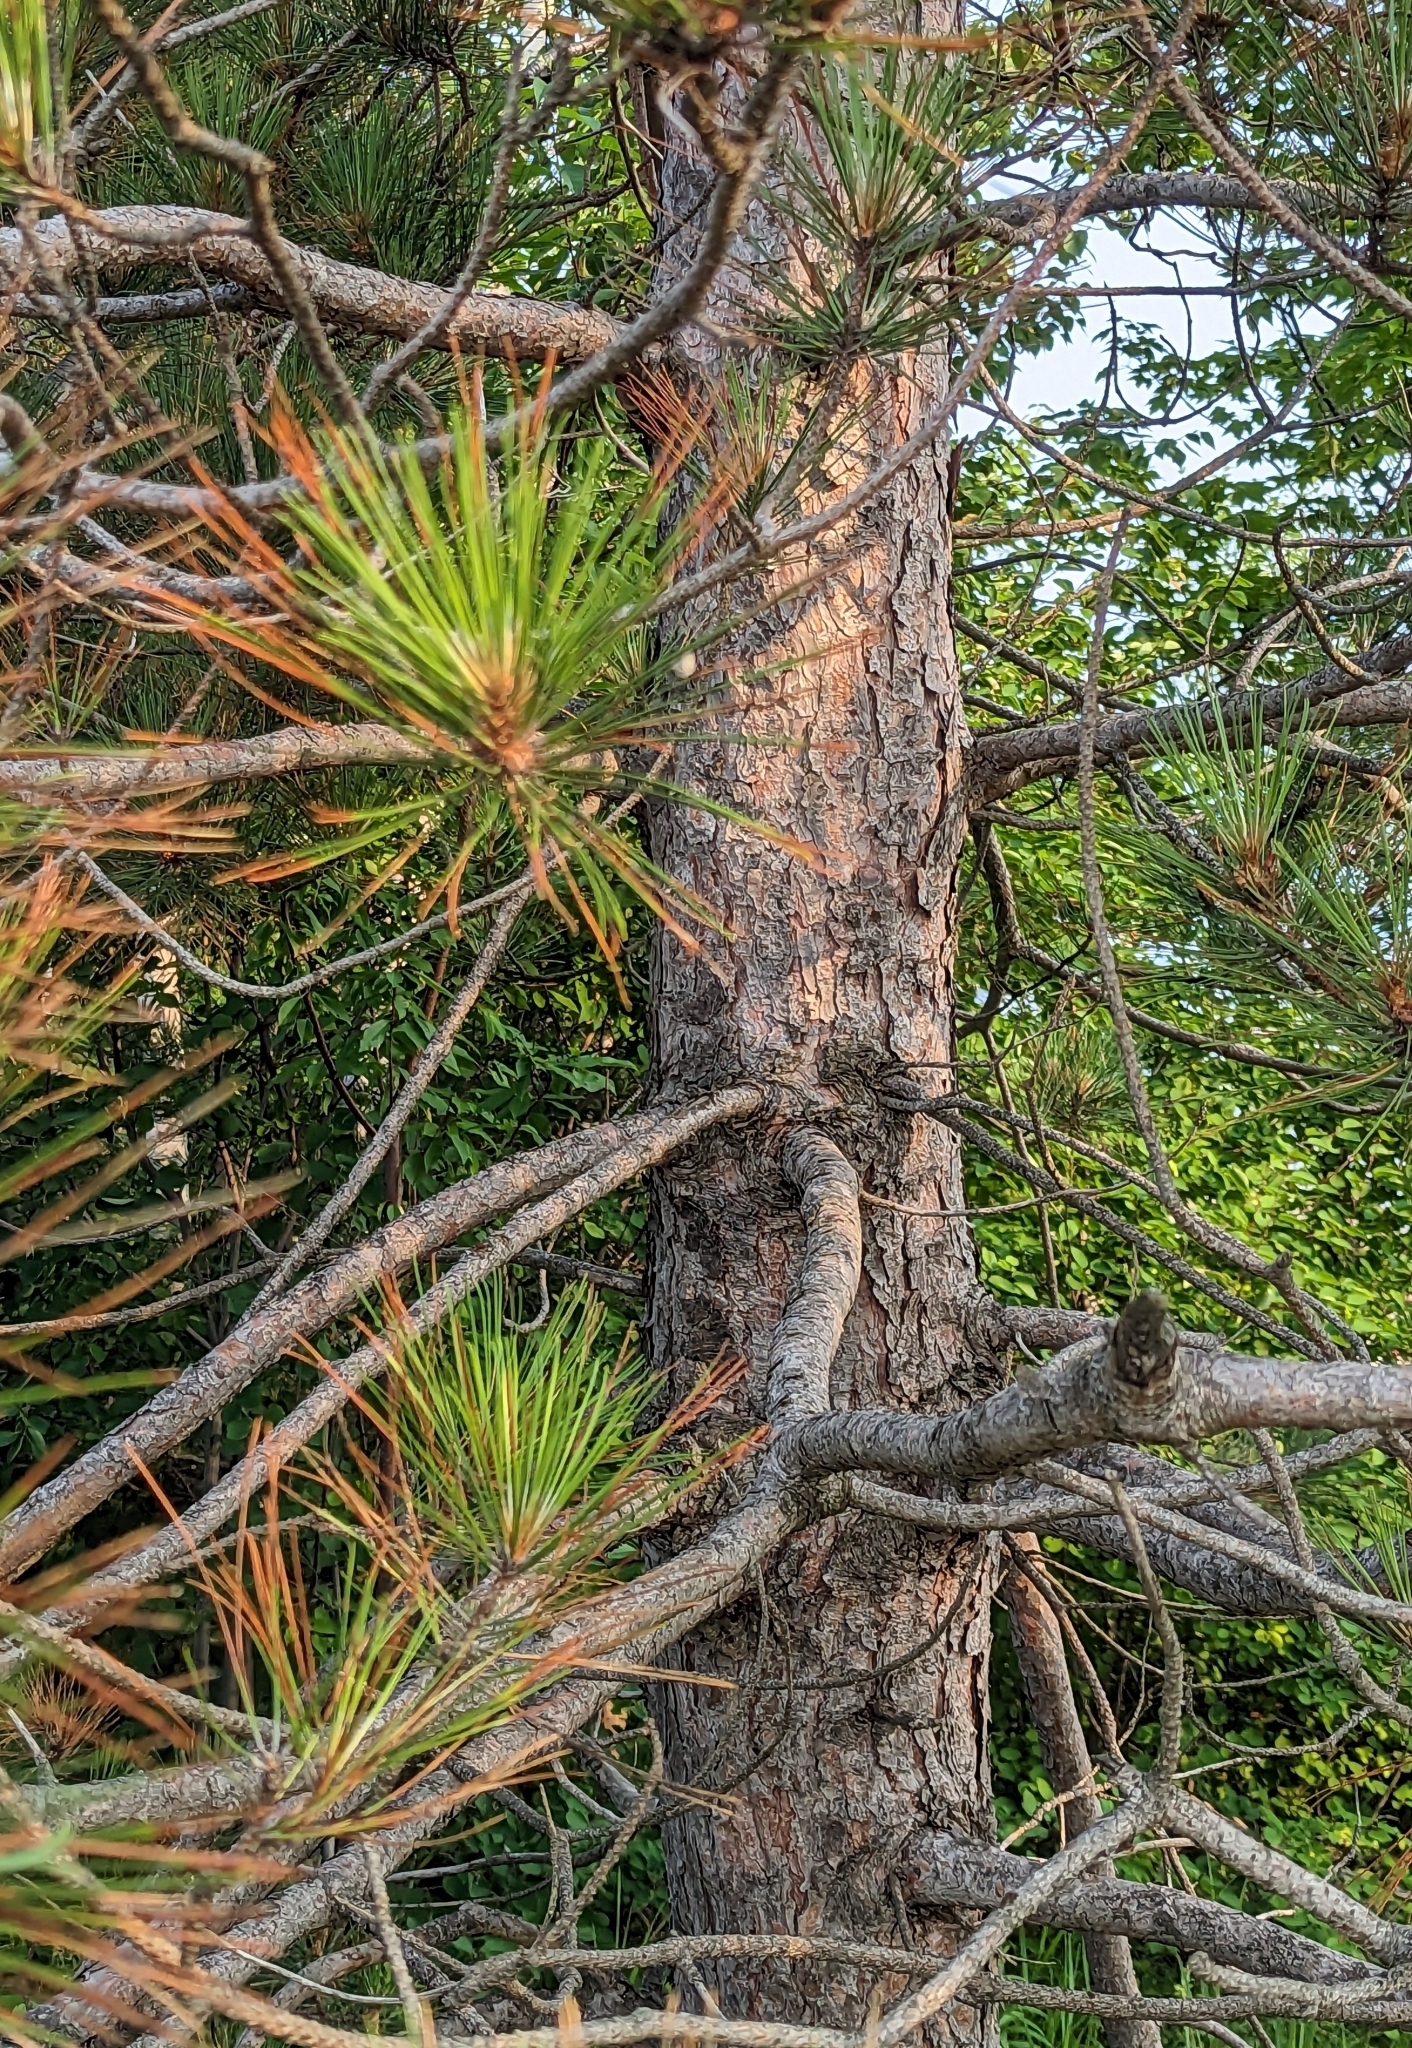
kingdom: Plantae
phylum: Tracheophyta
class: Pinopsida
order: Pinales
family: Pinaceae
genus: Pinus
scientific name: Pinus resinosa
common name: Norway pine
